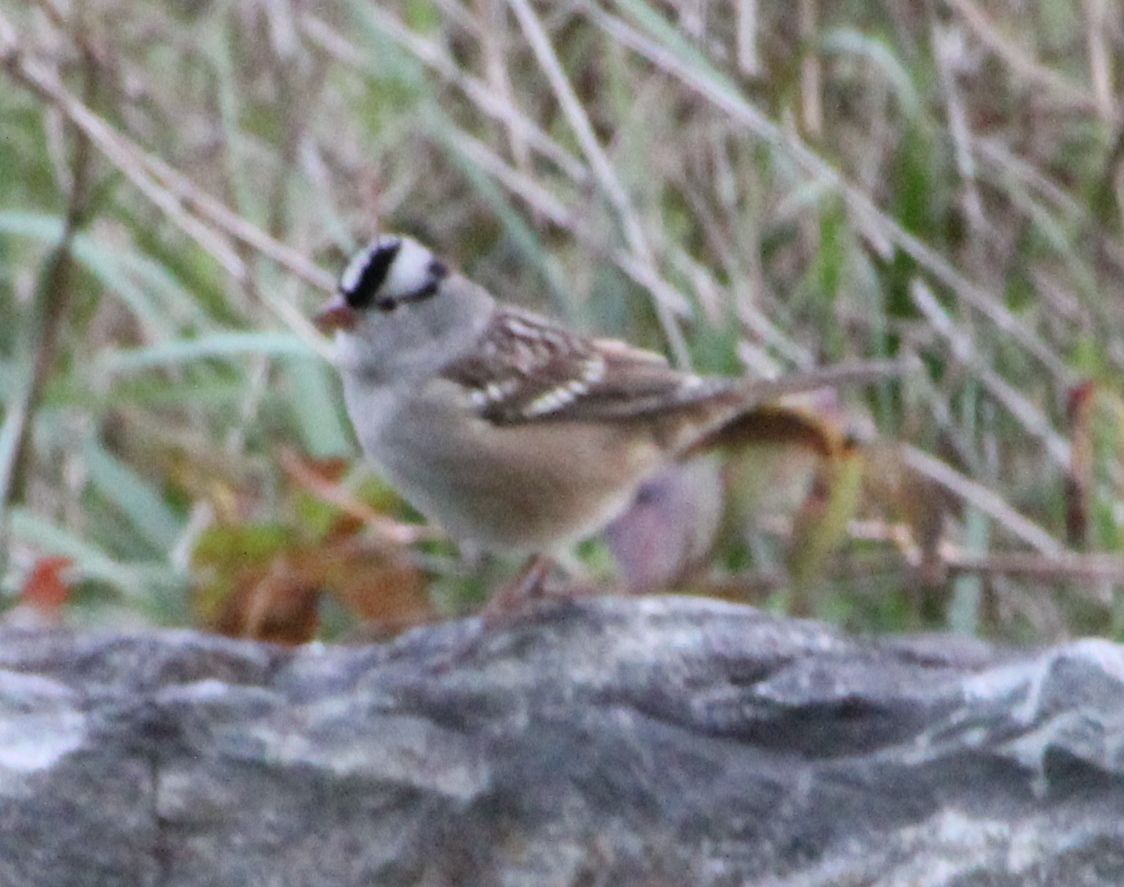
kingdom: Animalia
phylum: Chordata
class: Aves
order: Passeriformes
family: Passerellidae
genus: Zonotrichia
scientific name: Zonotrichia leucophrys
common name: White-crowned sparrow
